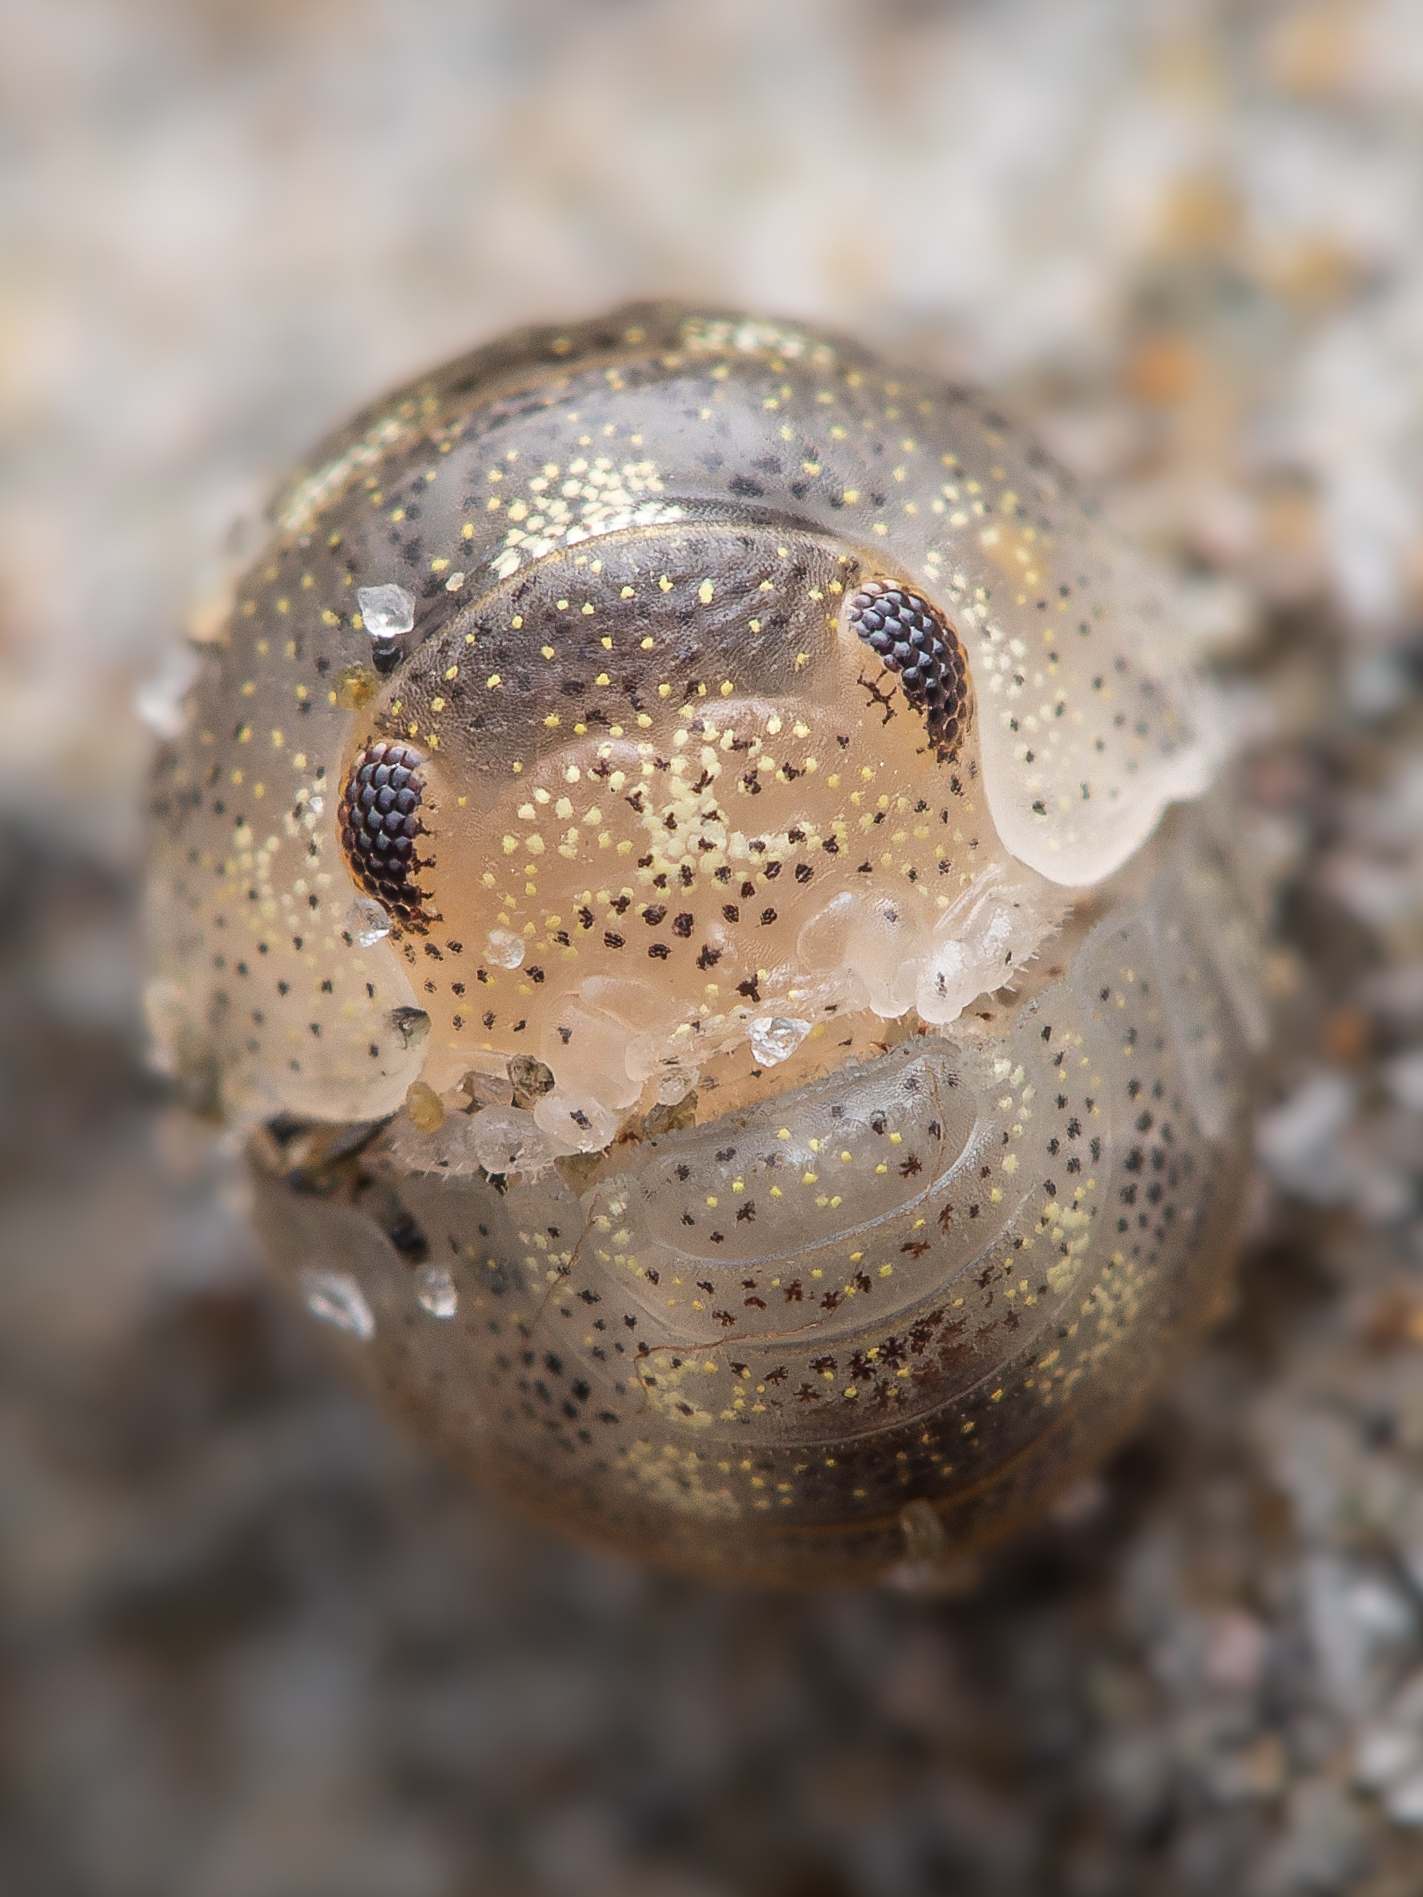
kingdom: Animalia
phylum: Arthropoda
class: Malacostraca
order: Isopoda
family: Tylidae
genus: Tylos
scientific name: Tylos neozelanicus
